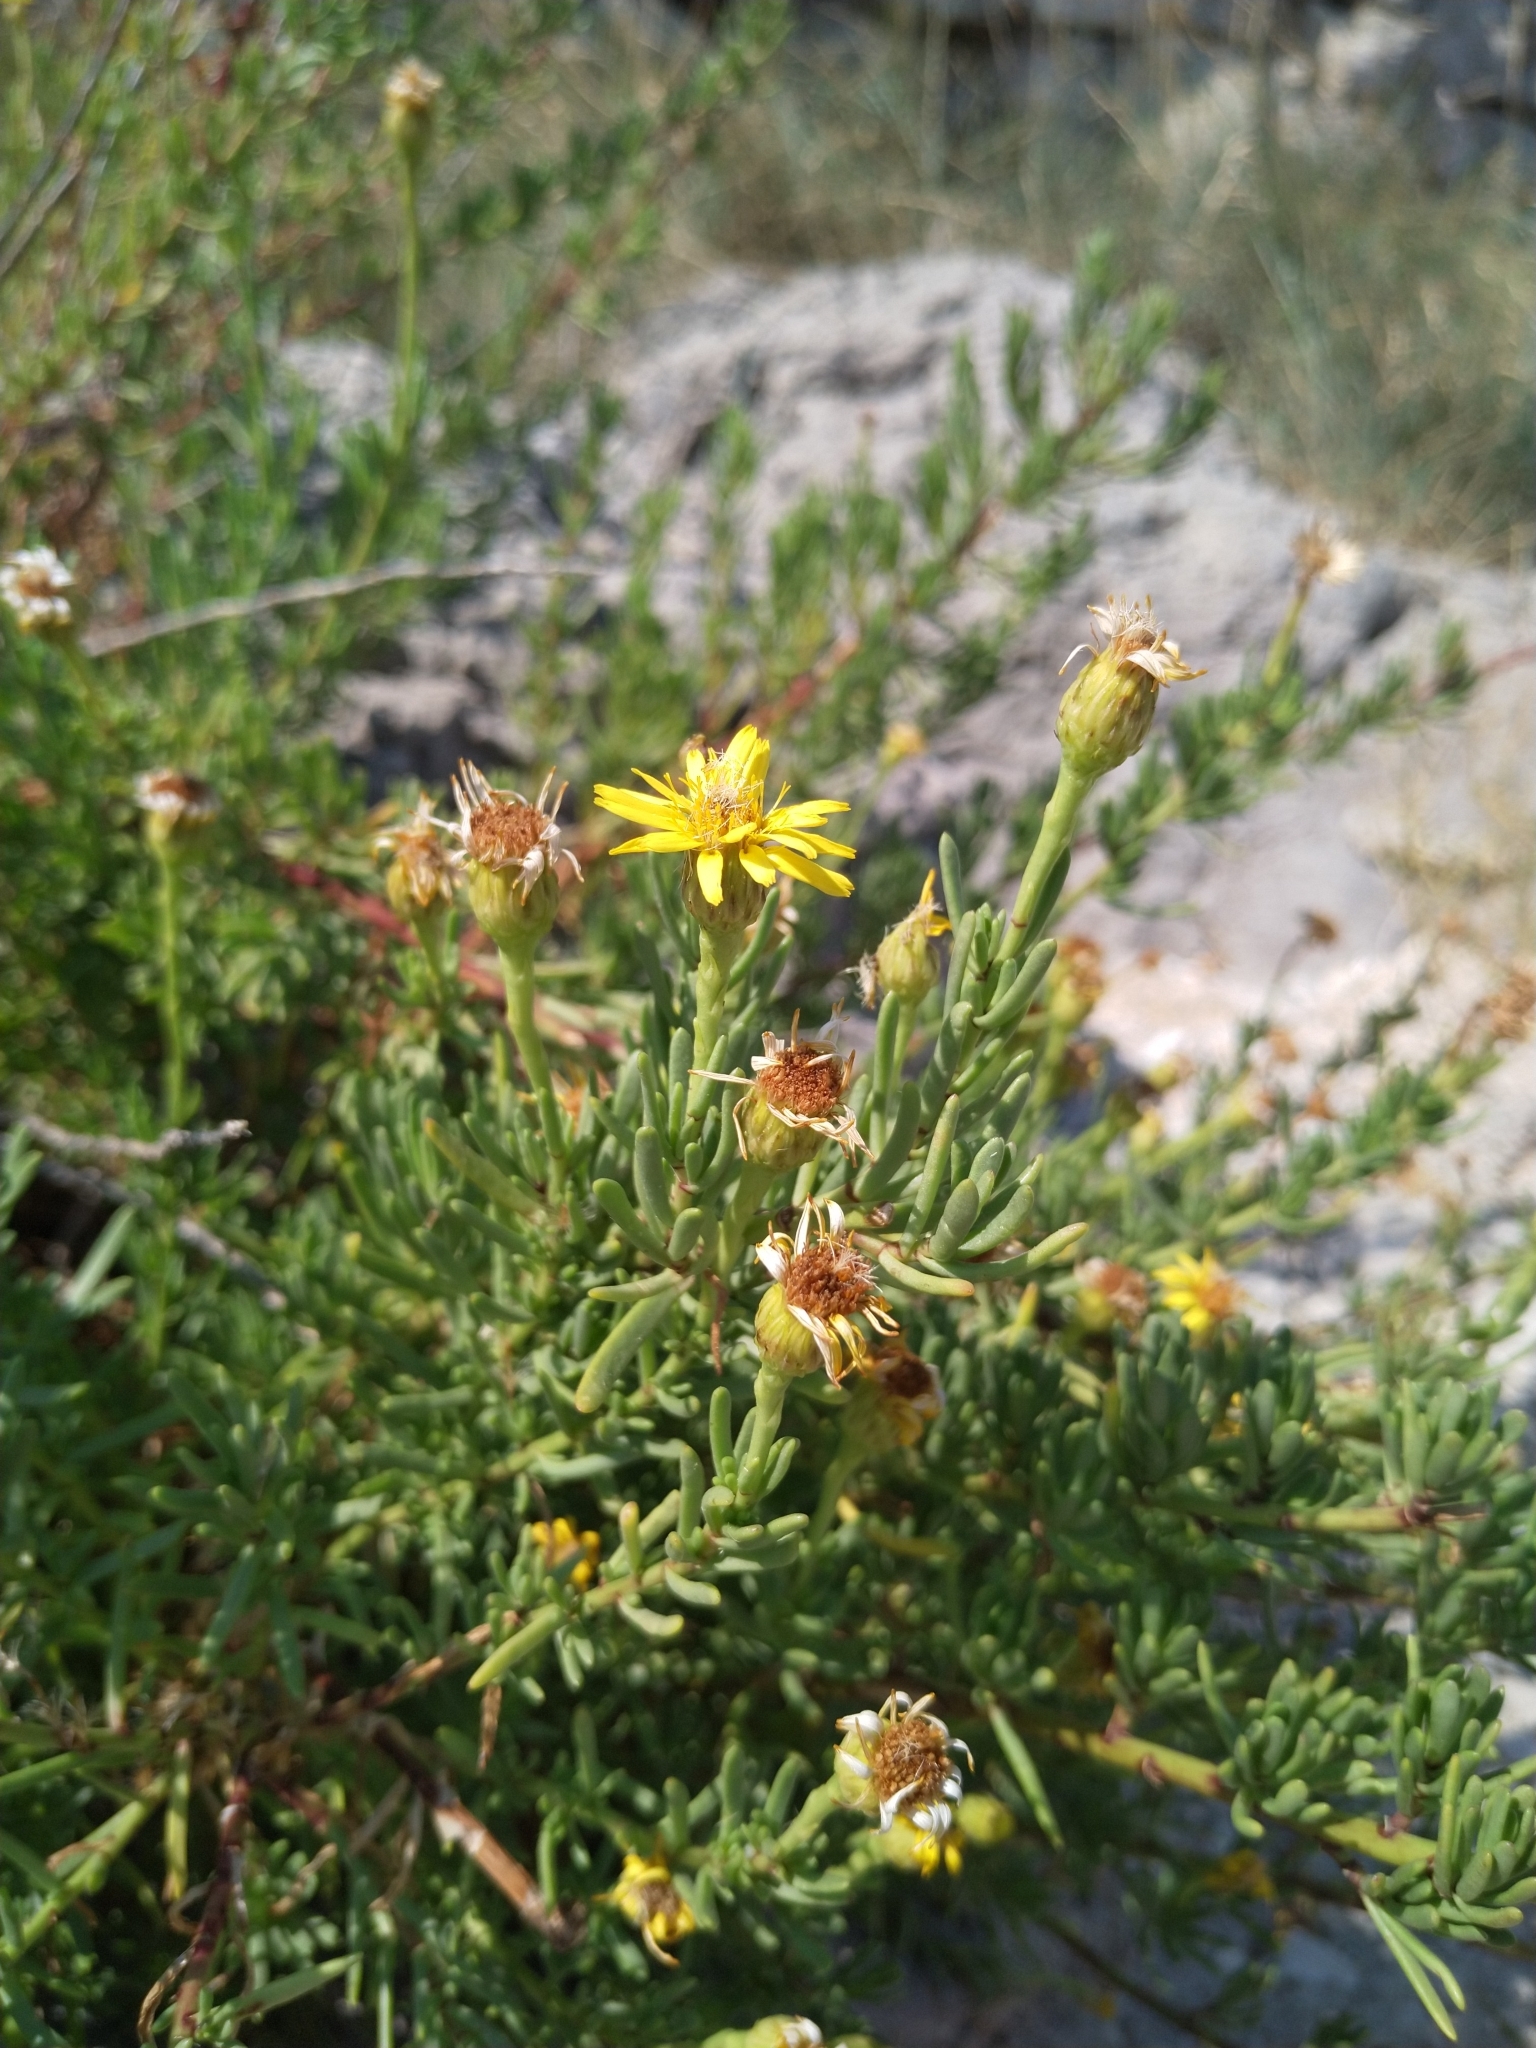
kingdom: Plantae
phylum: Tracheophyta
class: Magnoliopsida
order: Asterales
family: Asteraceae
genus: Limbarda
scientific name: Limbarda crithmoides
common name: Golden samphire
